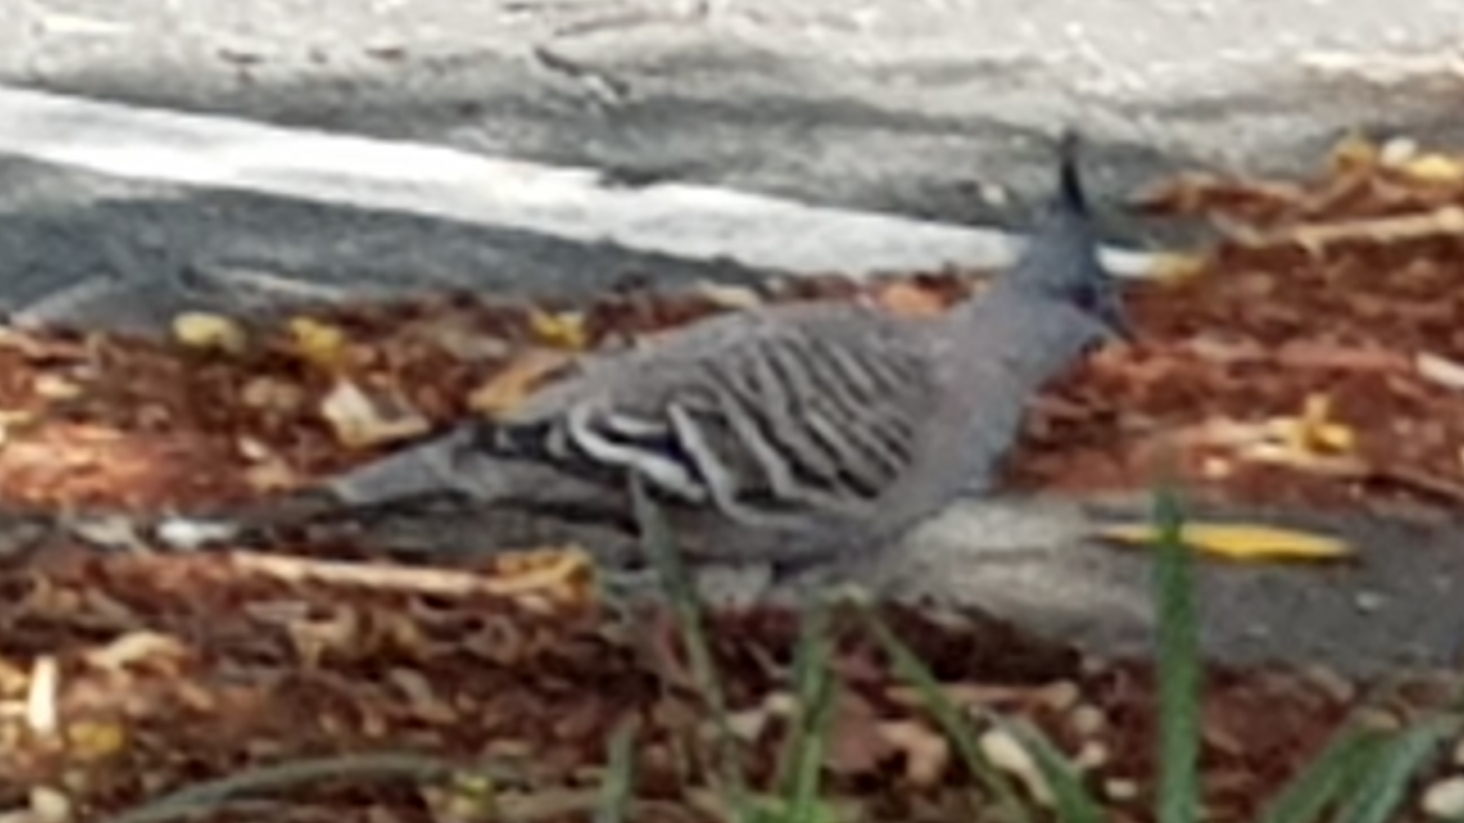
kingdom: Animalia
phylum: Chordata
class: Aves
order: Columbiformes
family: Columbidae
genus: Ocyphaps
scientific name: Ocyphaps lophotes
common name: Crested pigeon
